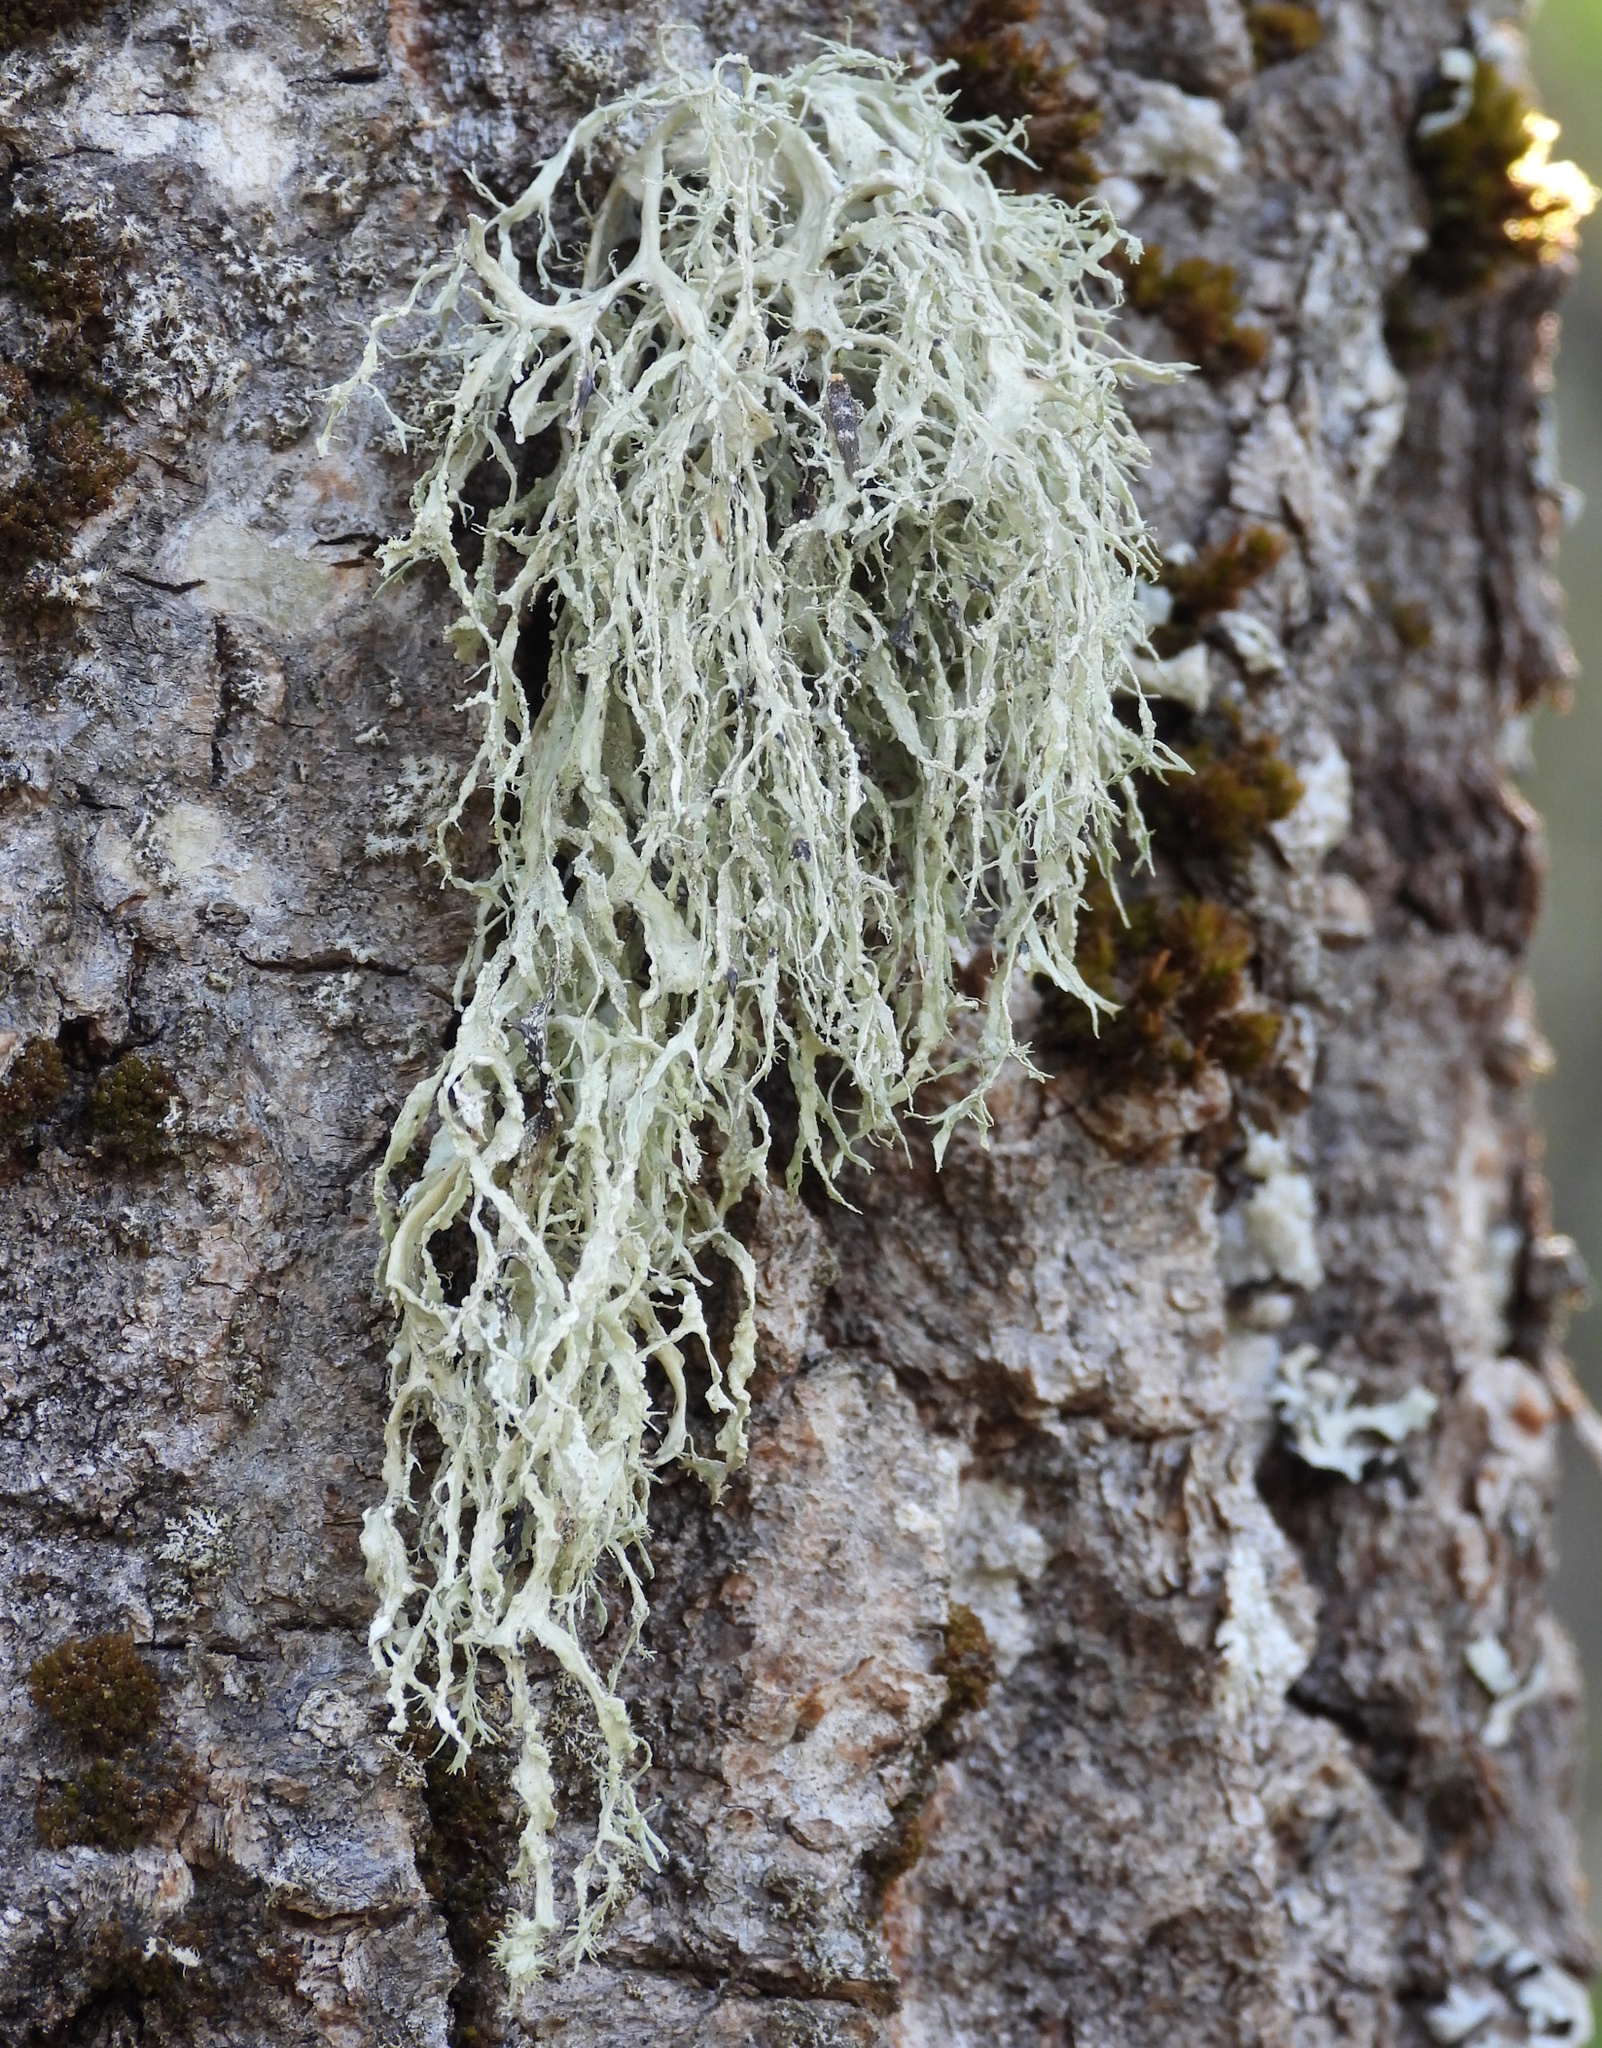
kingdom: Fungi
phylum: Ascomycota
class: Lecanoromycetes
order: Lecanorales
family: Ramalinaceae
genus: Ramalina
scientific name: Ramalina farinacea
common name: Farinose cartilage lichen
